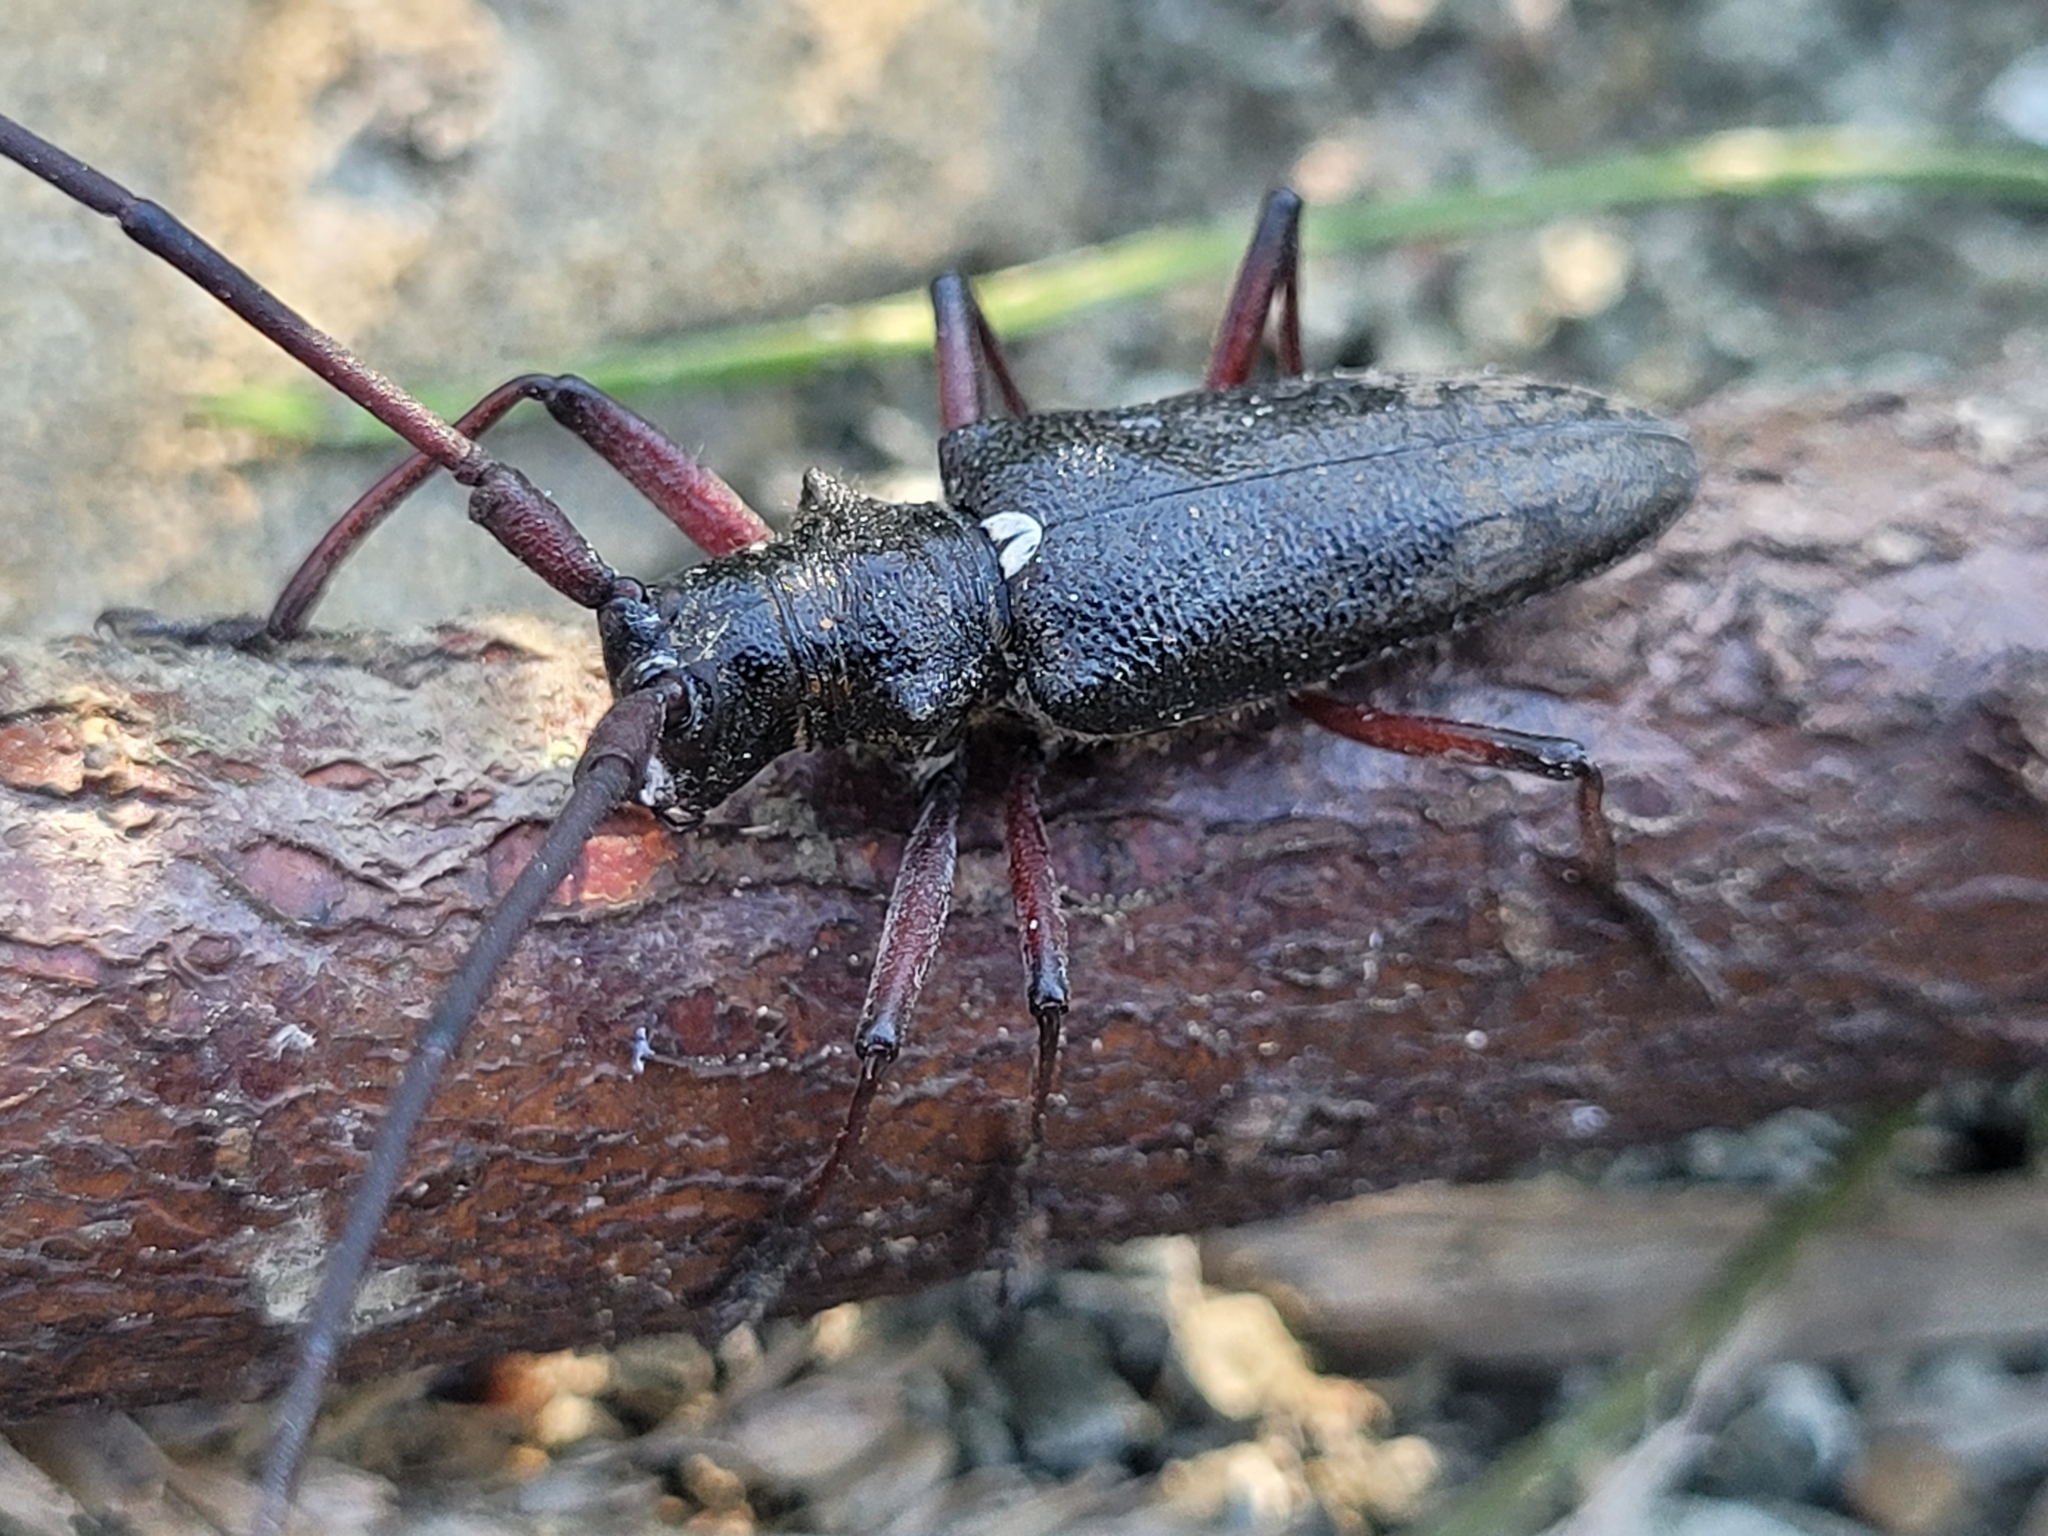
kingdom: Animalia
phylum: Arthropoda
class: Insecta
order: Coleoptera
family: Cerambycidae
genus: Monochamus
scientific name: Monochamus scutellatus
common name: White-spotted sawyer beetle
